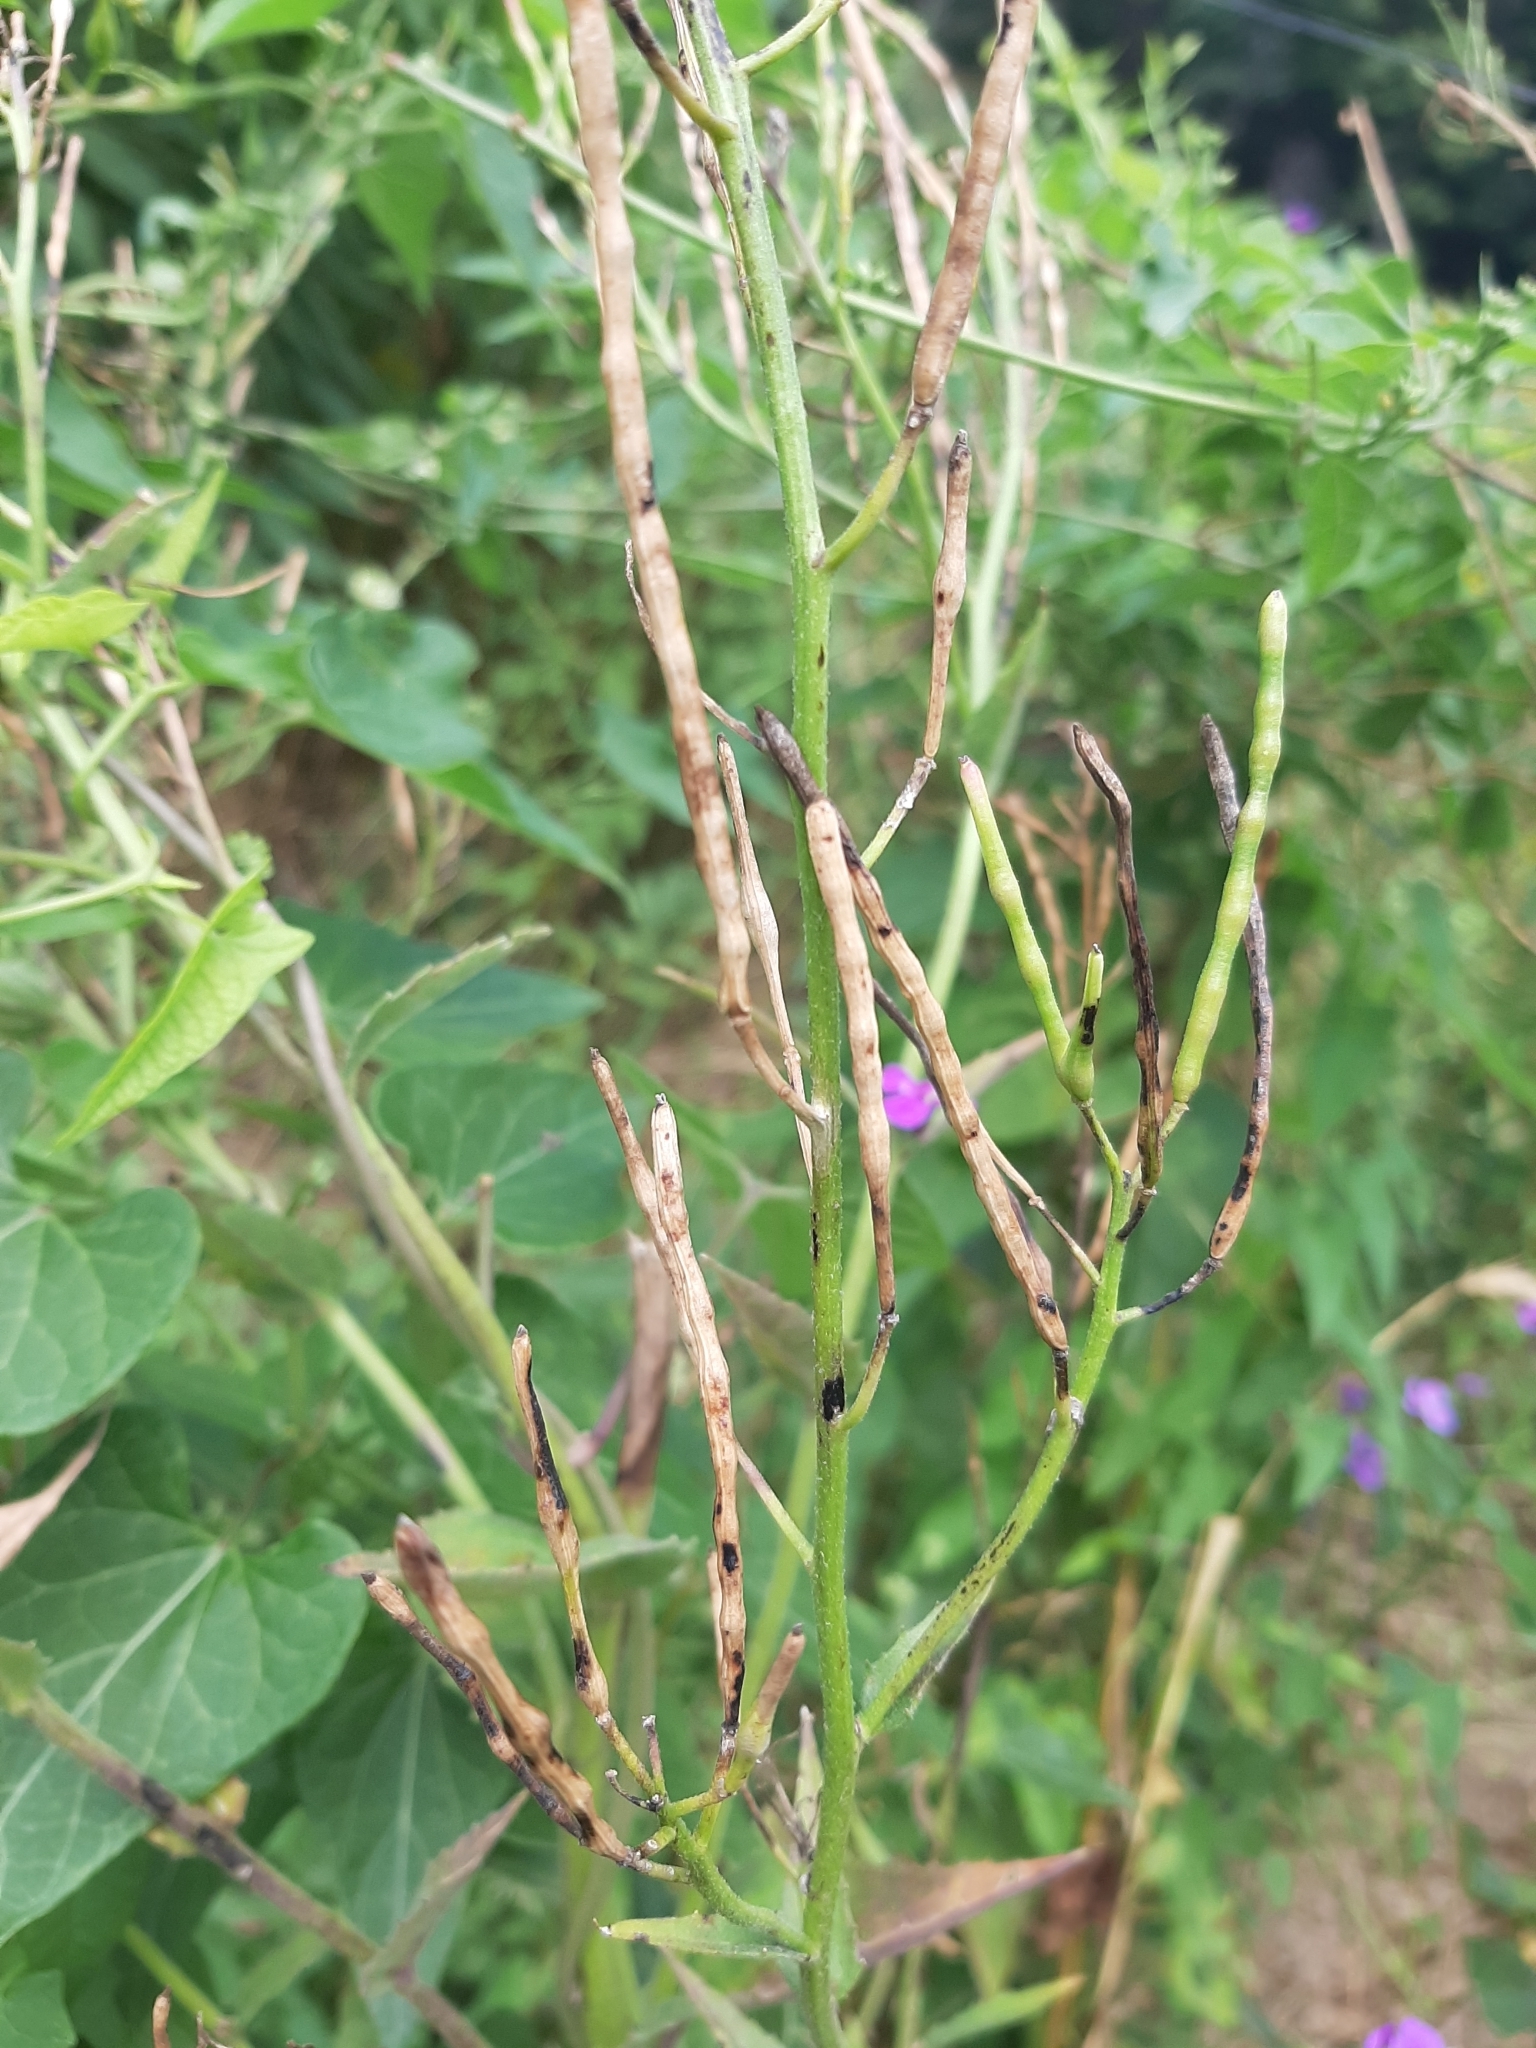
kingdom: Plantae
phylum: Tracheophyta
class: Magnoliopsida
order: Brassicales
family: Brassicaceae
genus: Hesperis
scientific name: Hesperis matronalis
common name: Dame's-violet
